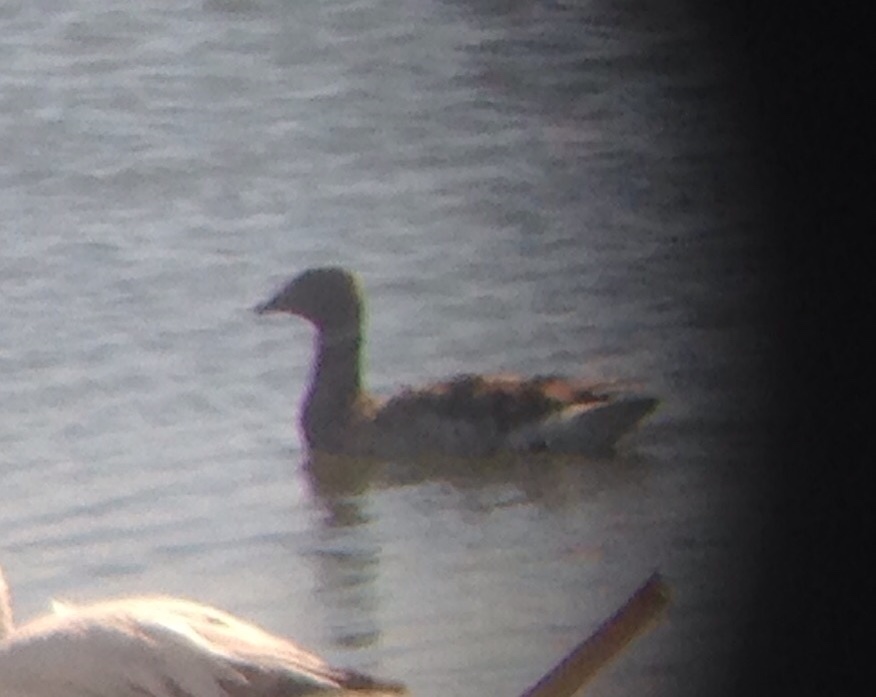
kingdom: Animalia
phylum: Chordata
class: Aves
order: Anseriformes
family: Anatidae
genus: Branta
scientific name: Branta bernicla
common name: Brant goose
